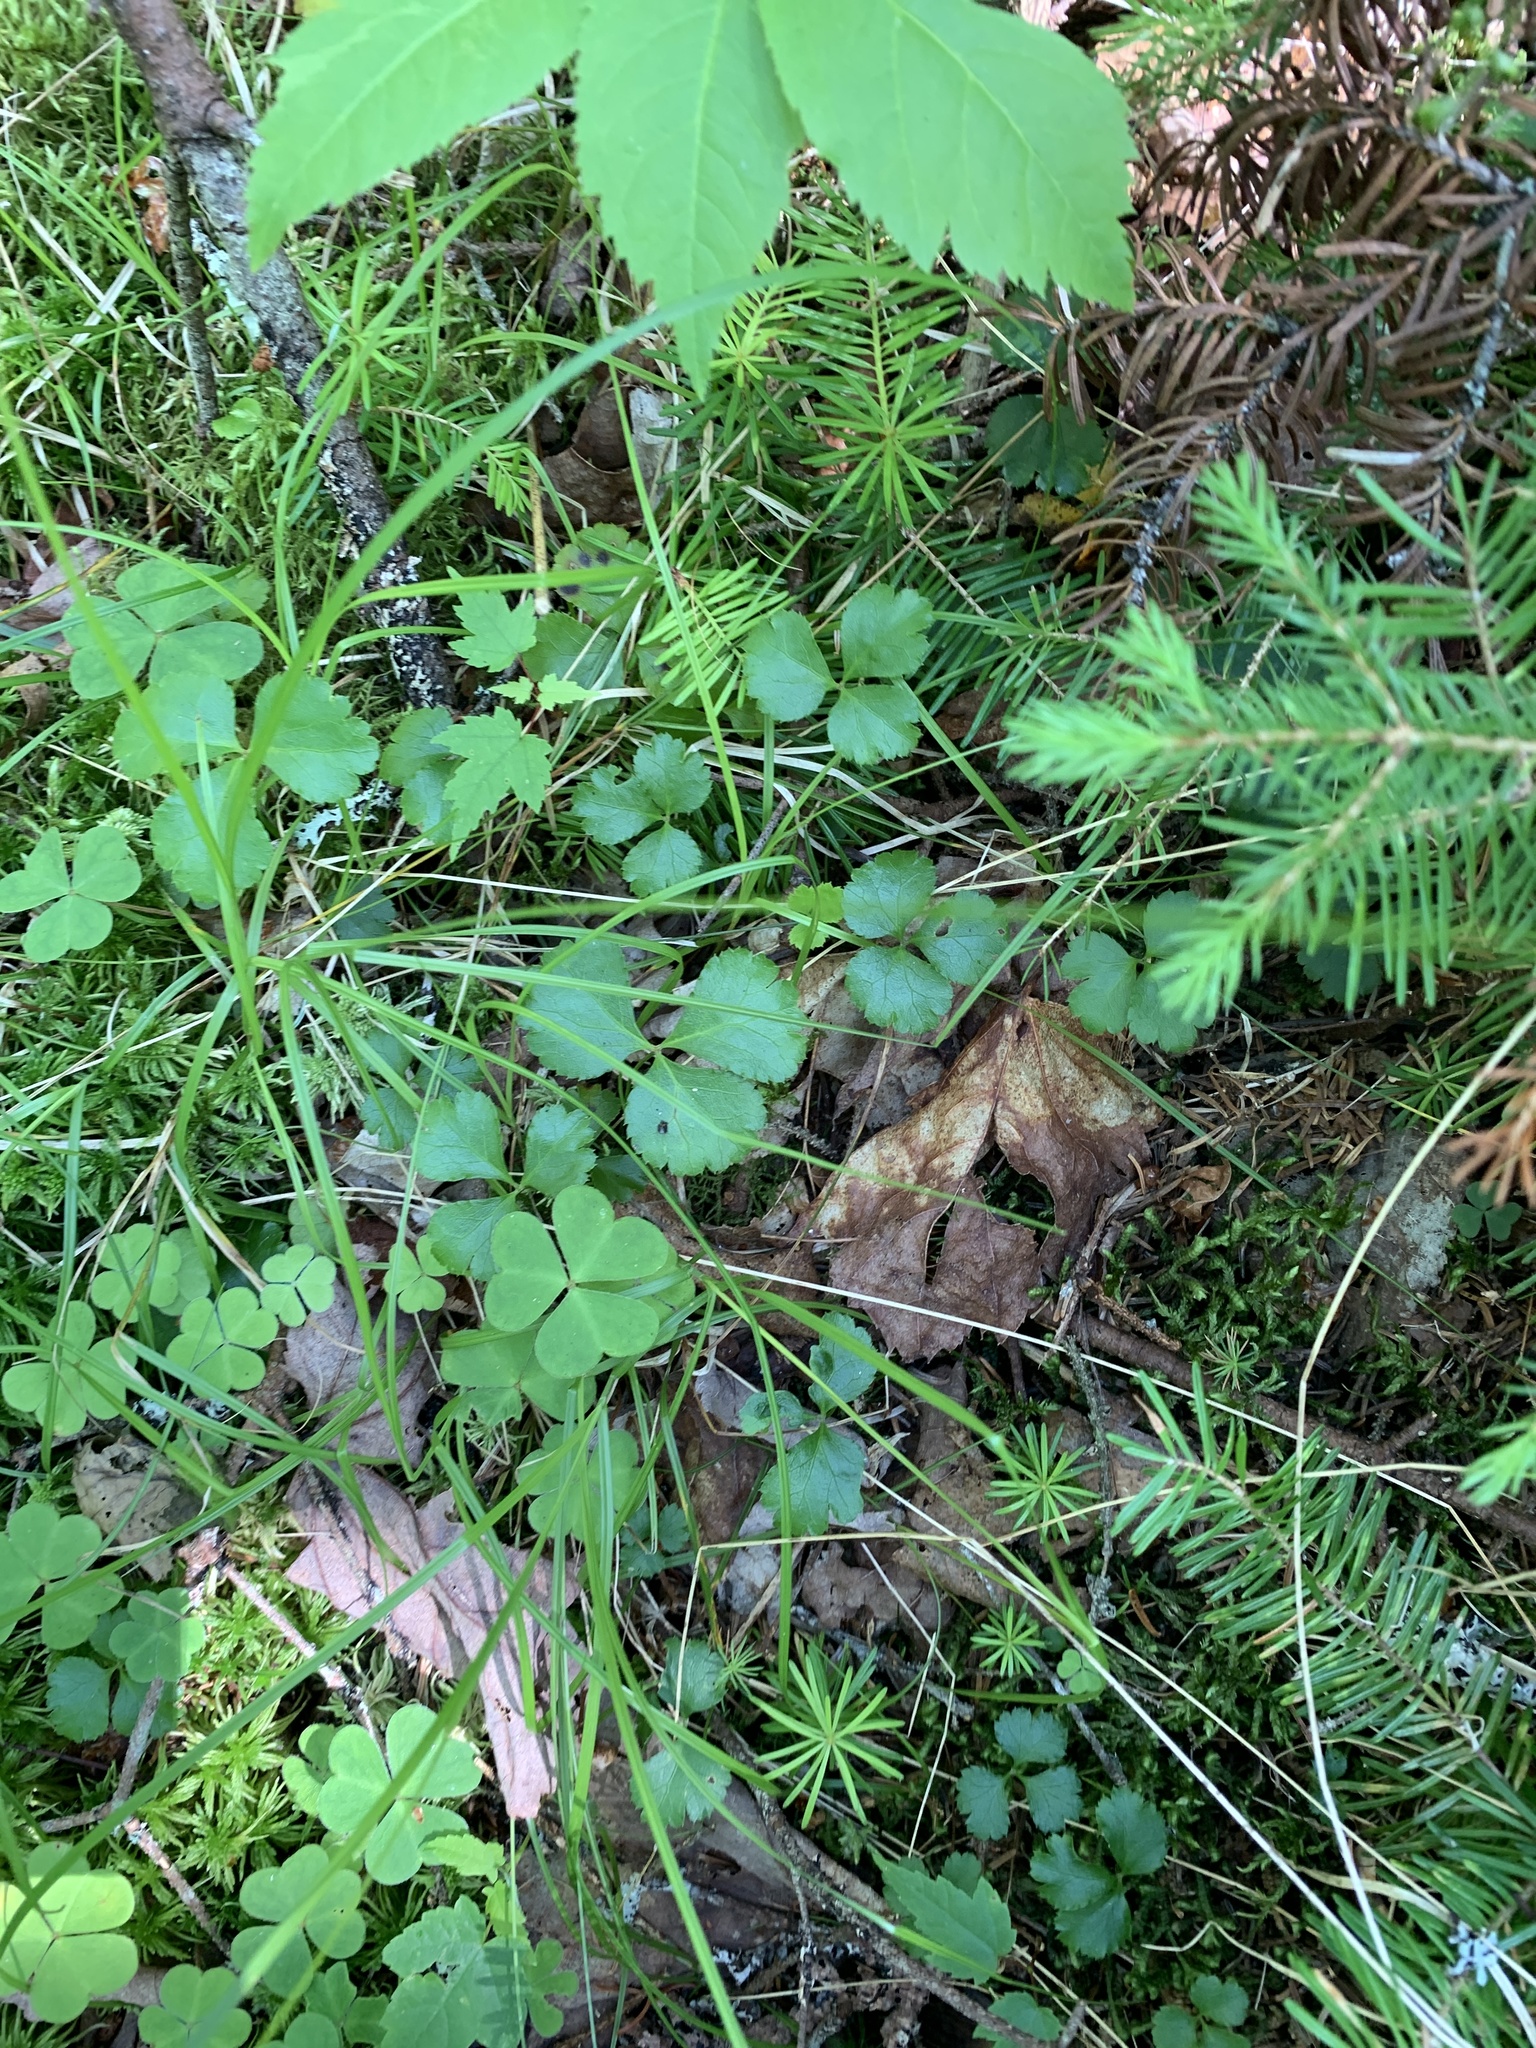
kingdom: Plantae
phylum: Tracheophyta
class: Magnoliopsida
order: Ranunculales
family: Ranunculaceae
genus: Coptis
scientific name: Coptis trifolia
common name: Canker-root
